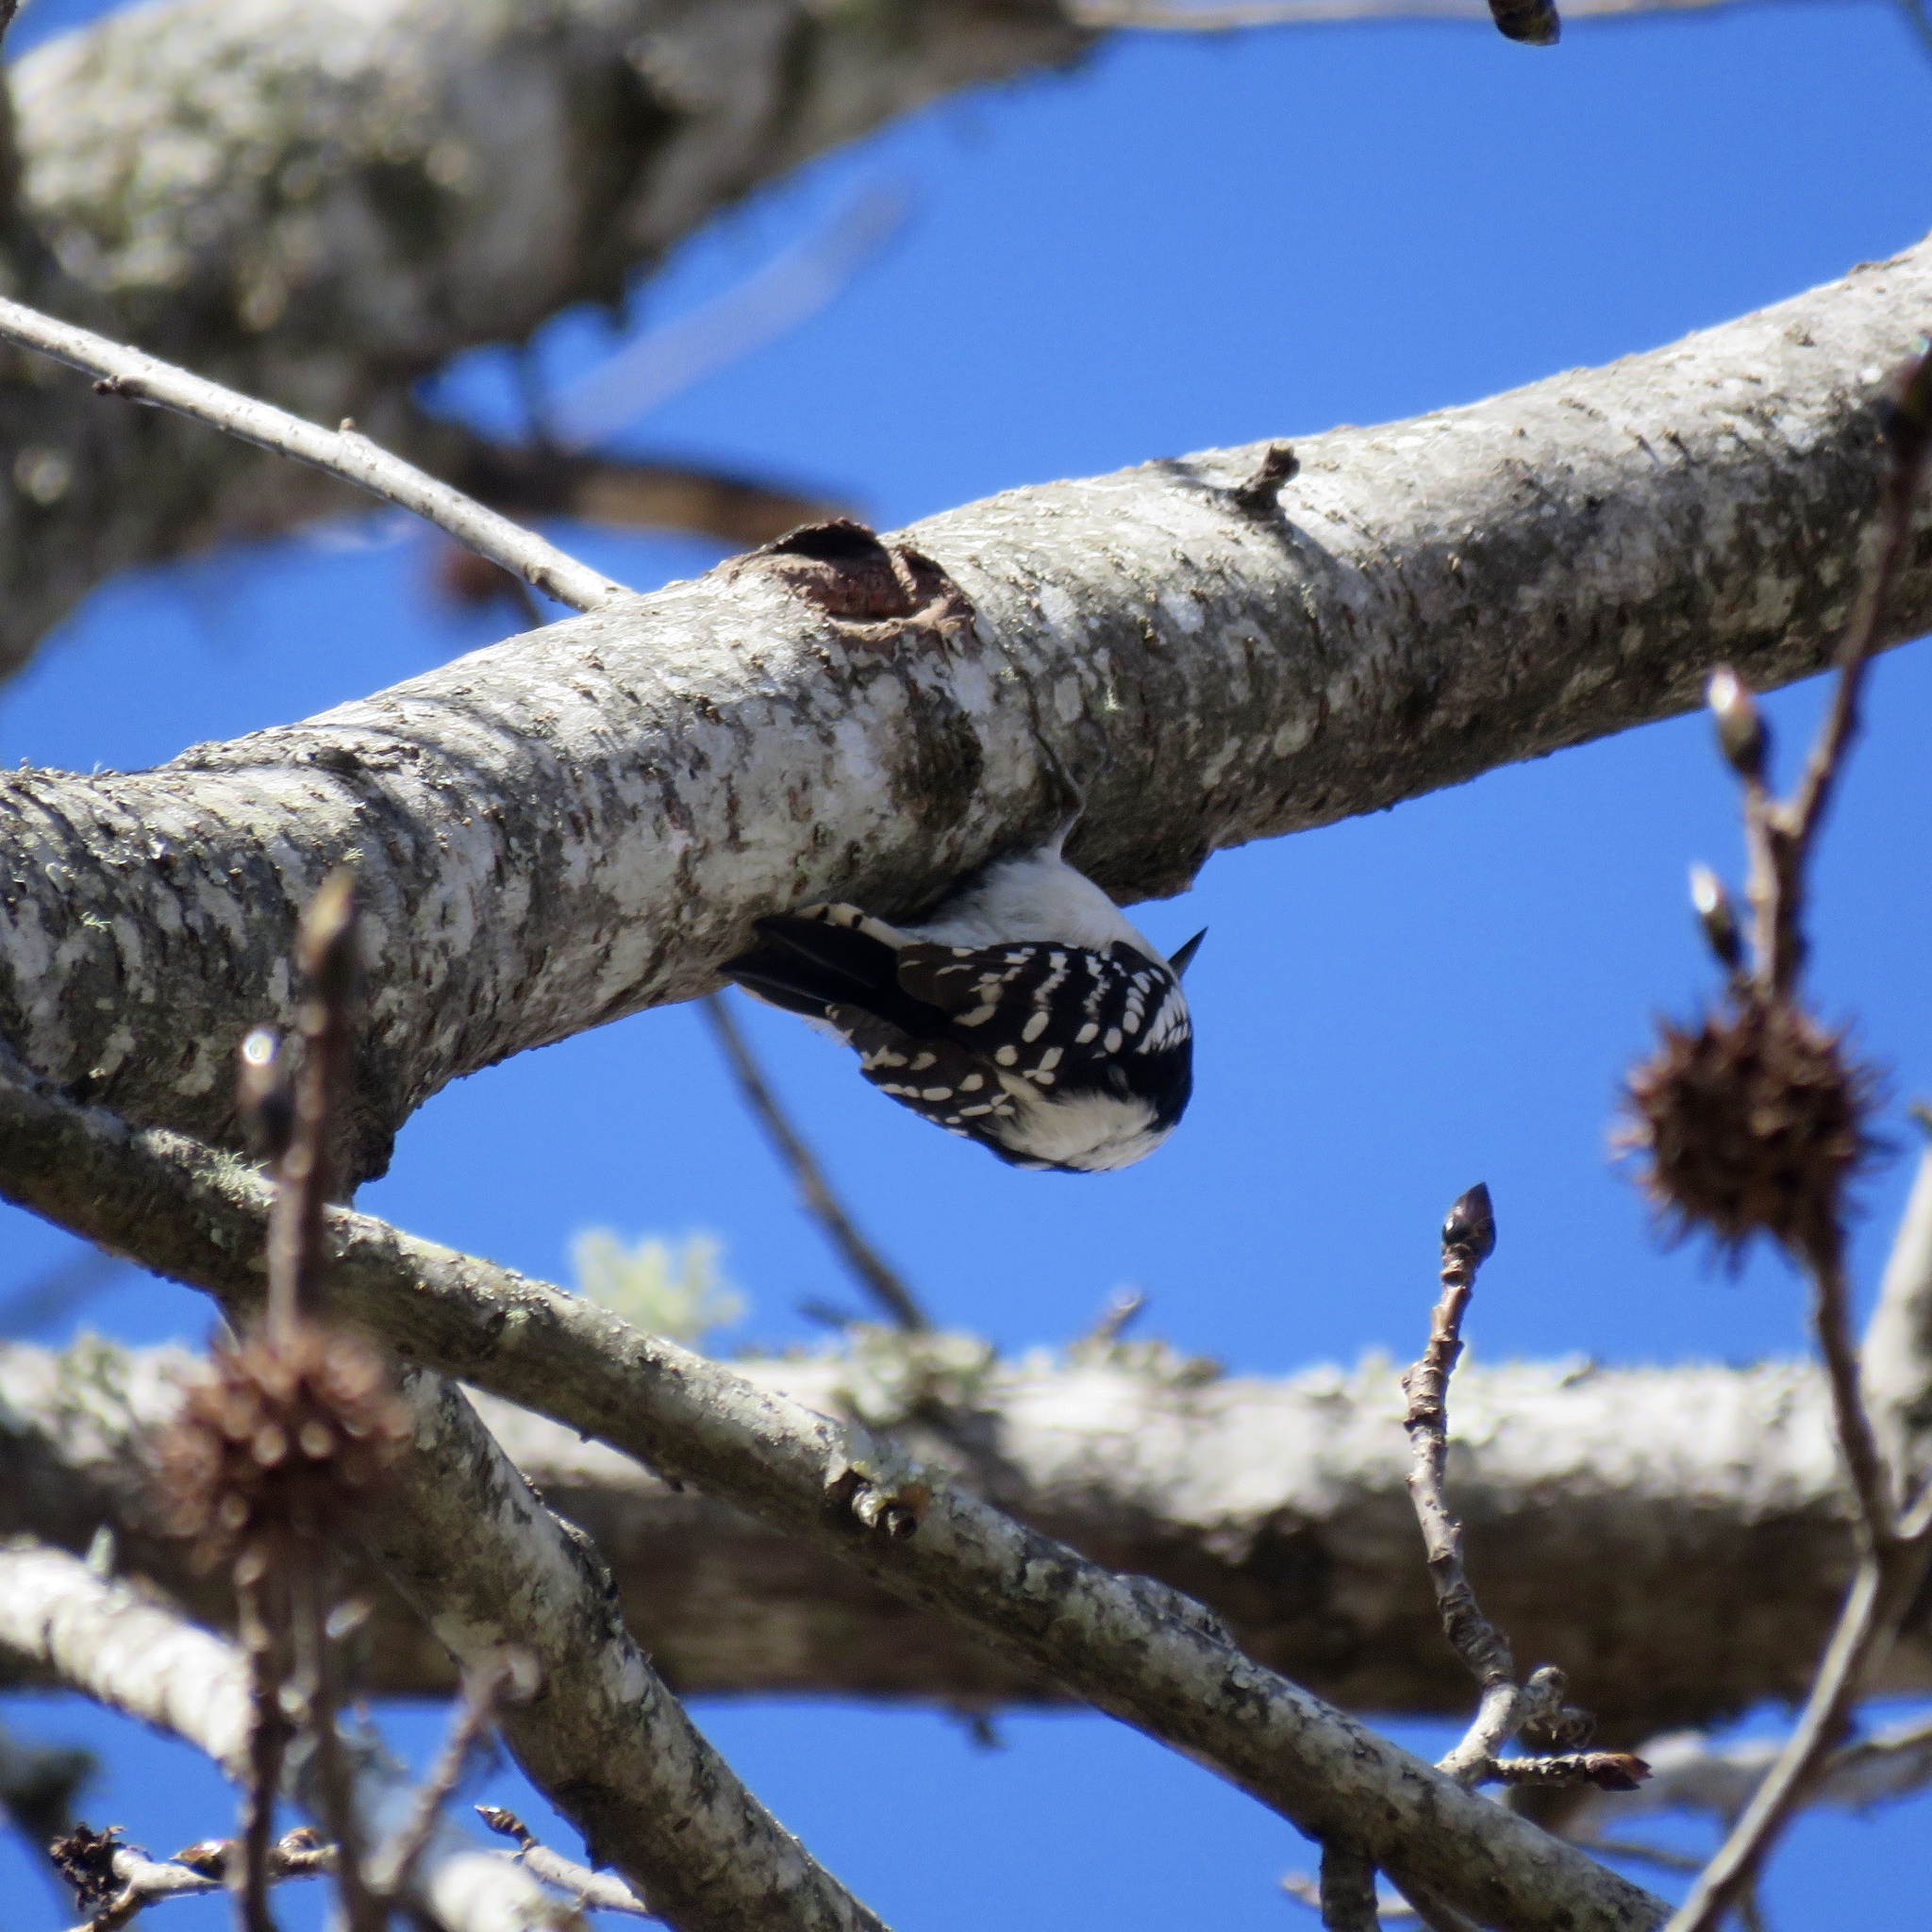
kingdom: Animalia
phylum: Chordata
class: Aves
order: Piciformes
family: Picidae
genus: Dryobates
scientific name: Dryobates pubescens
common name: Downy woodpecker
